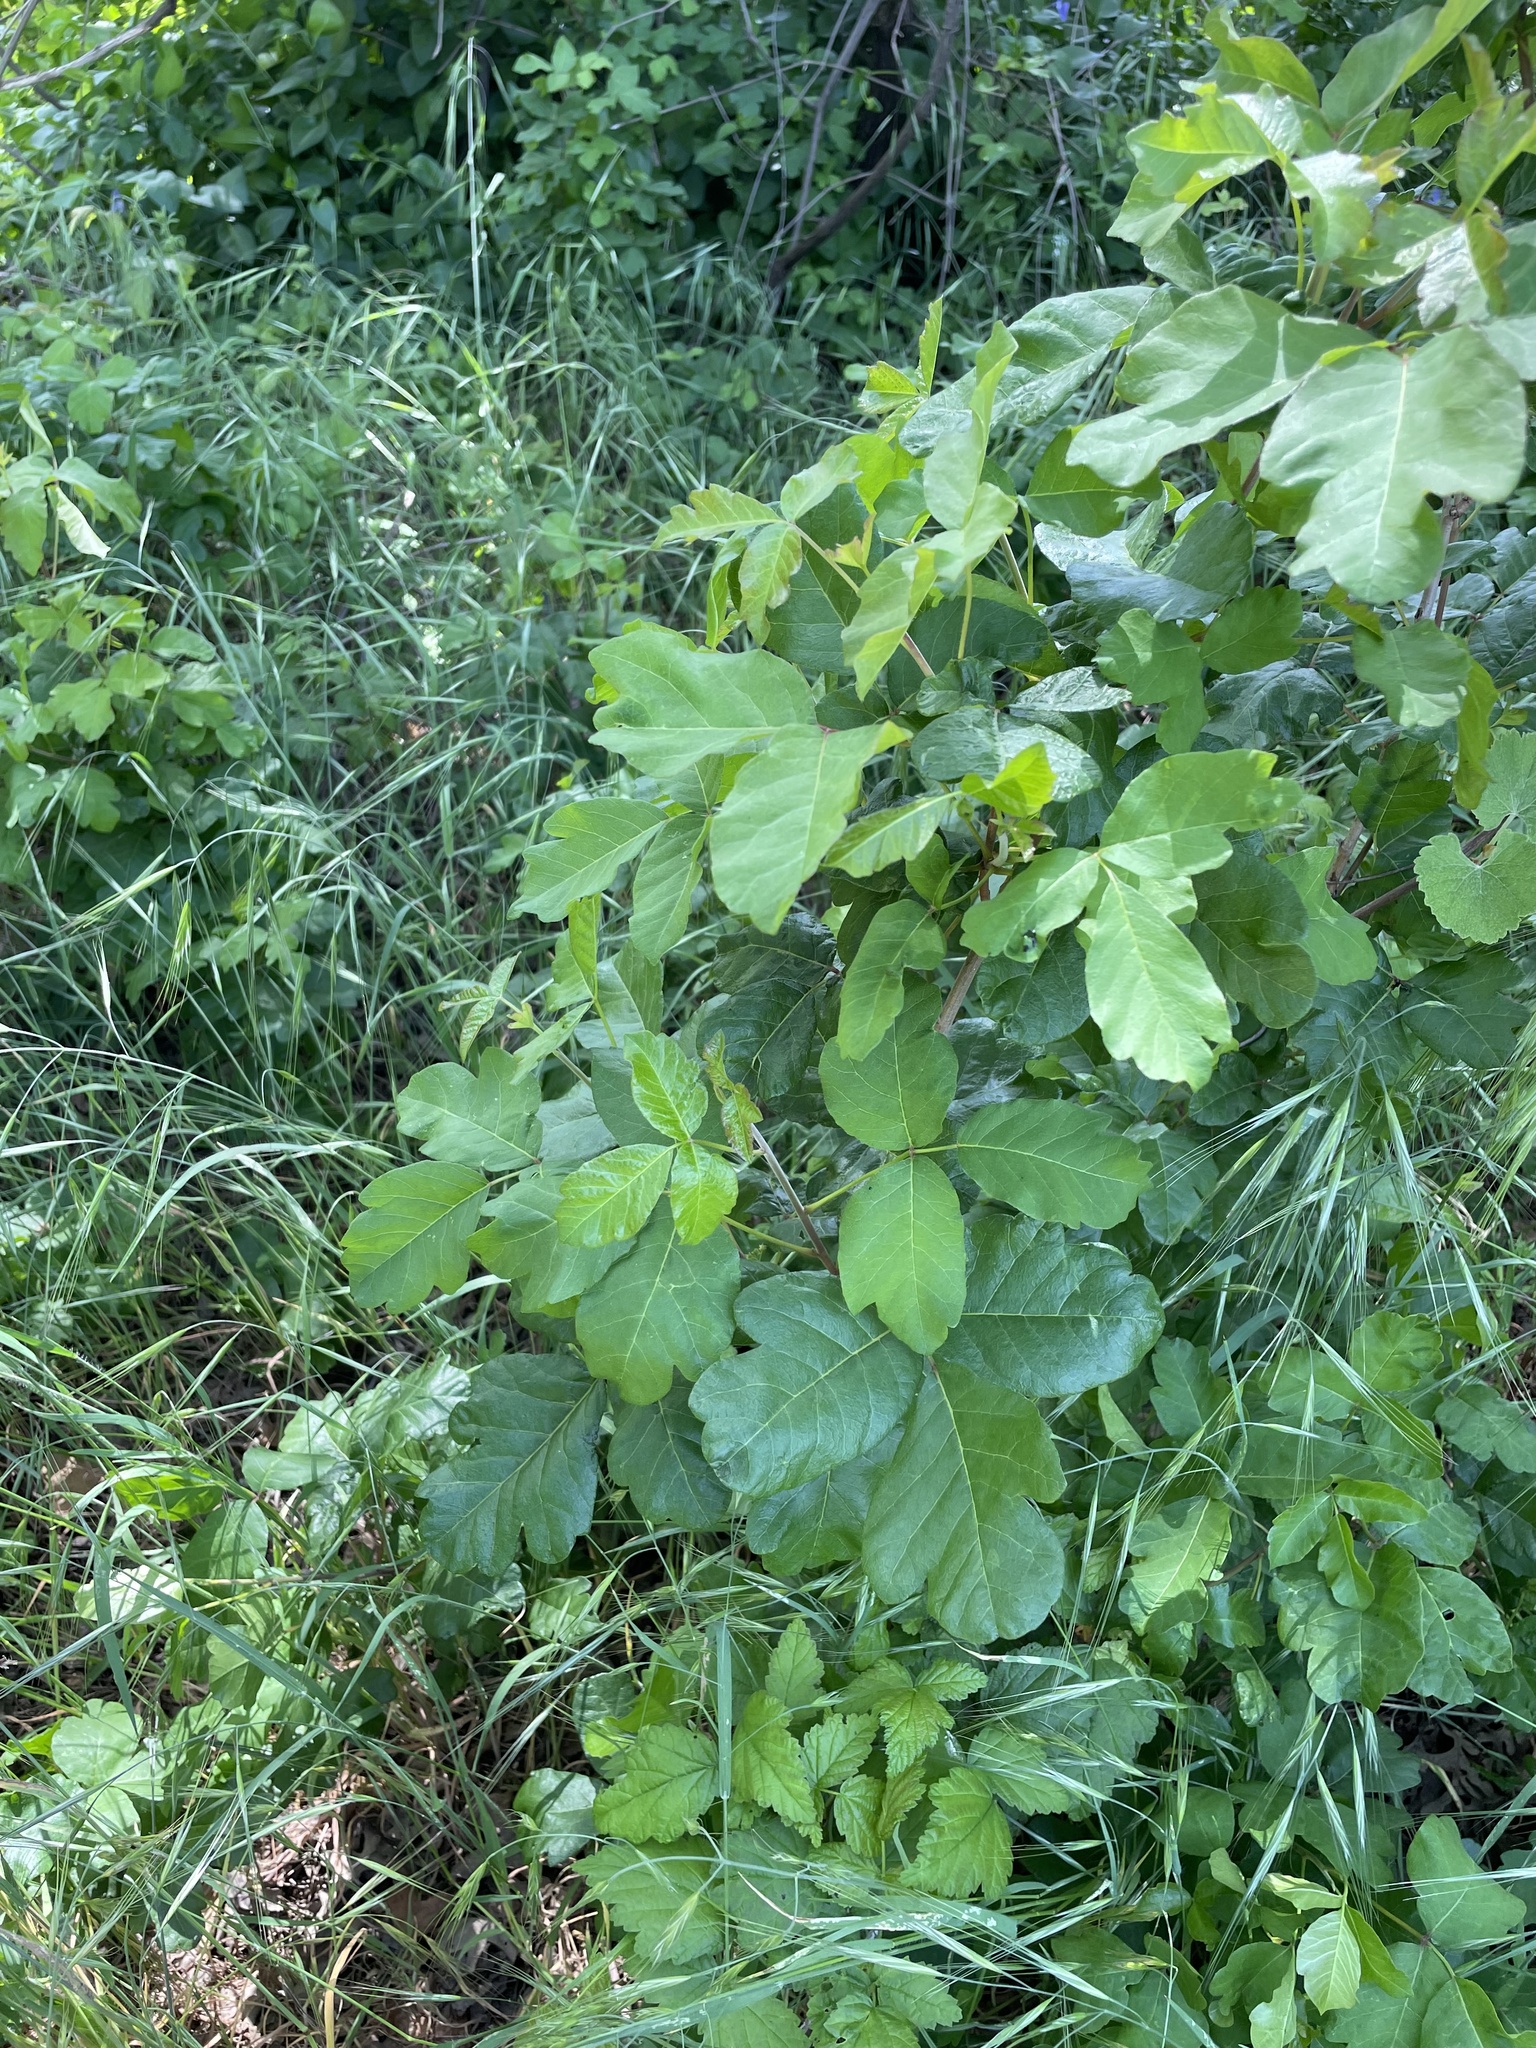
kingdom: Plantae
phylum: Tracheophyta
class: Magnoliopsida
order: Sapindales
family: Anacardiaceae
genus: Toxicodendron
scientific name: Toxicodendron diversilobum
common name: Pacific poison-oak
